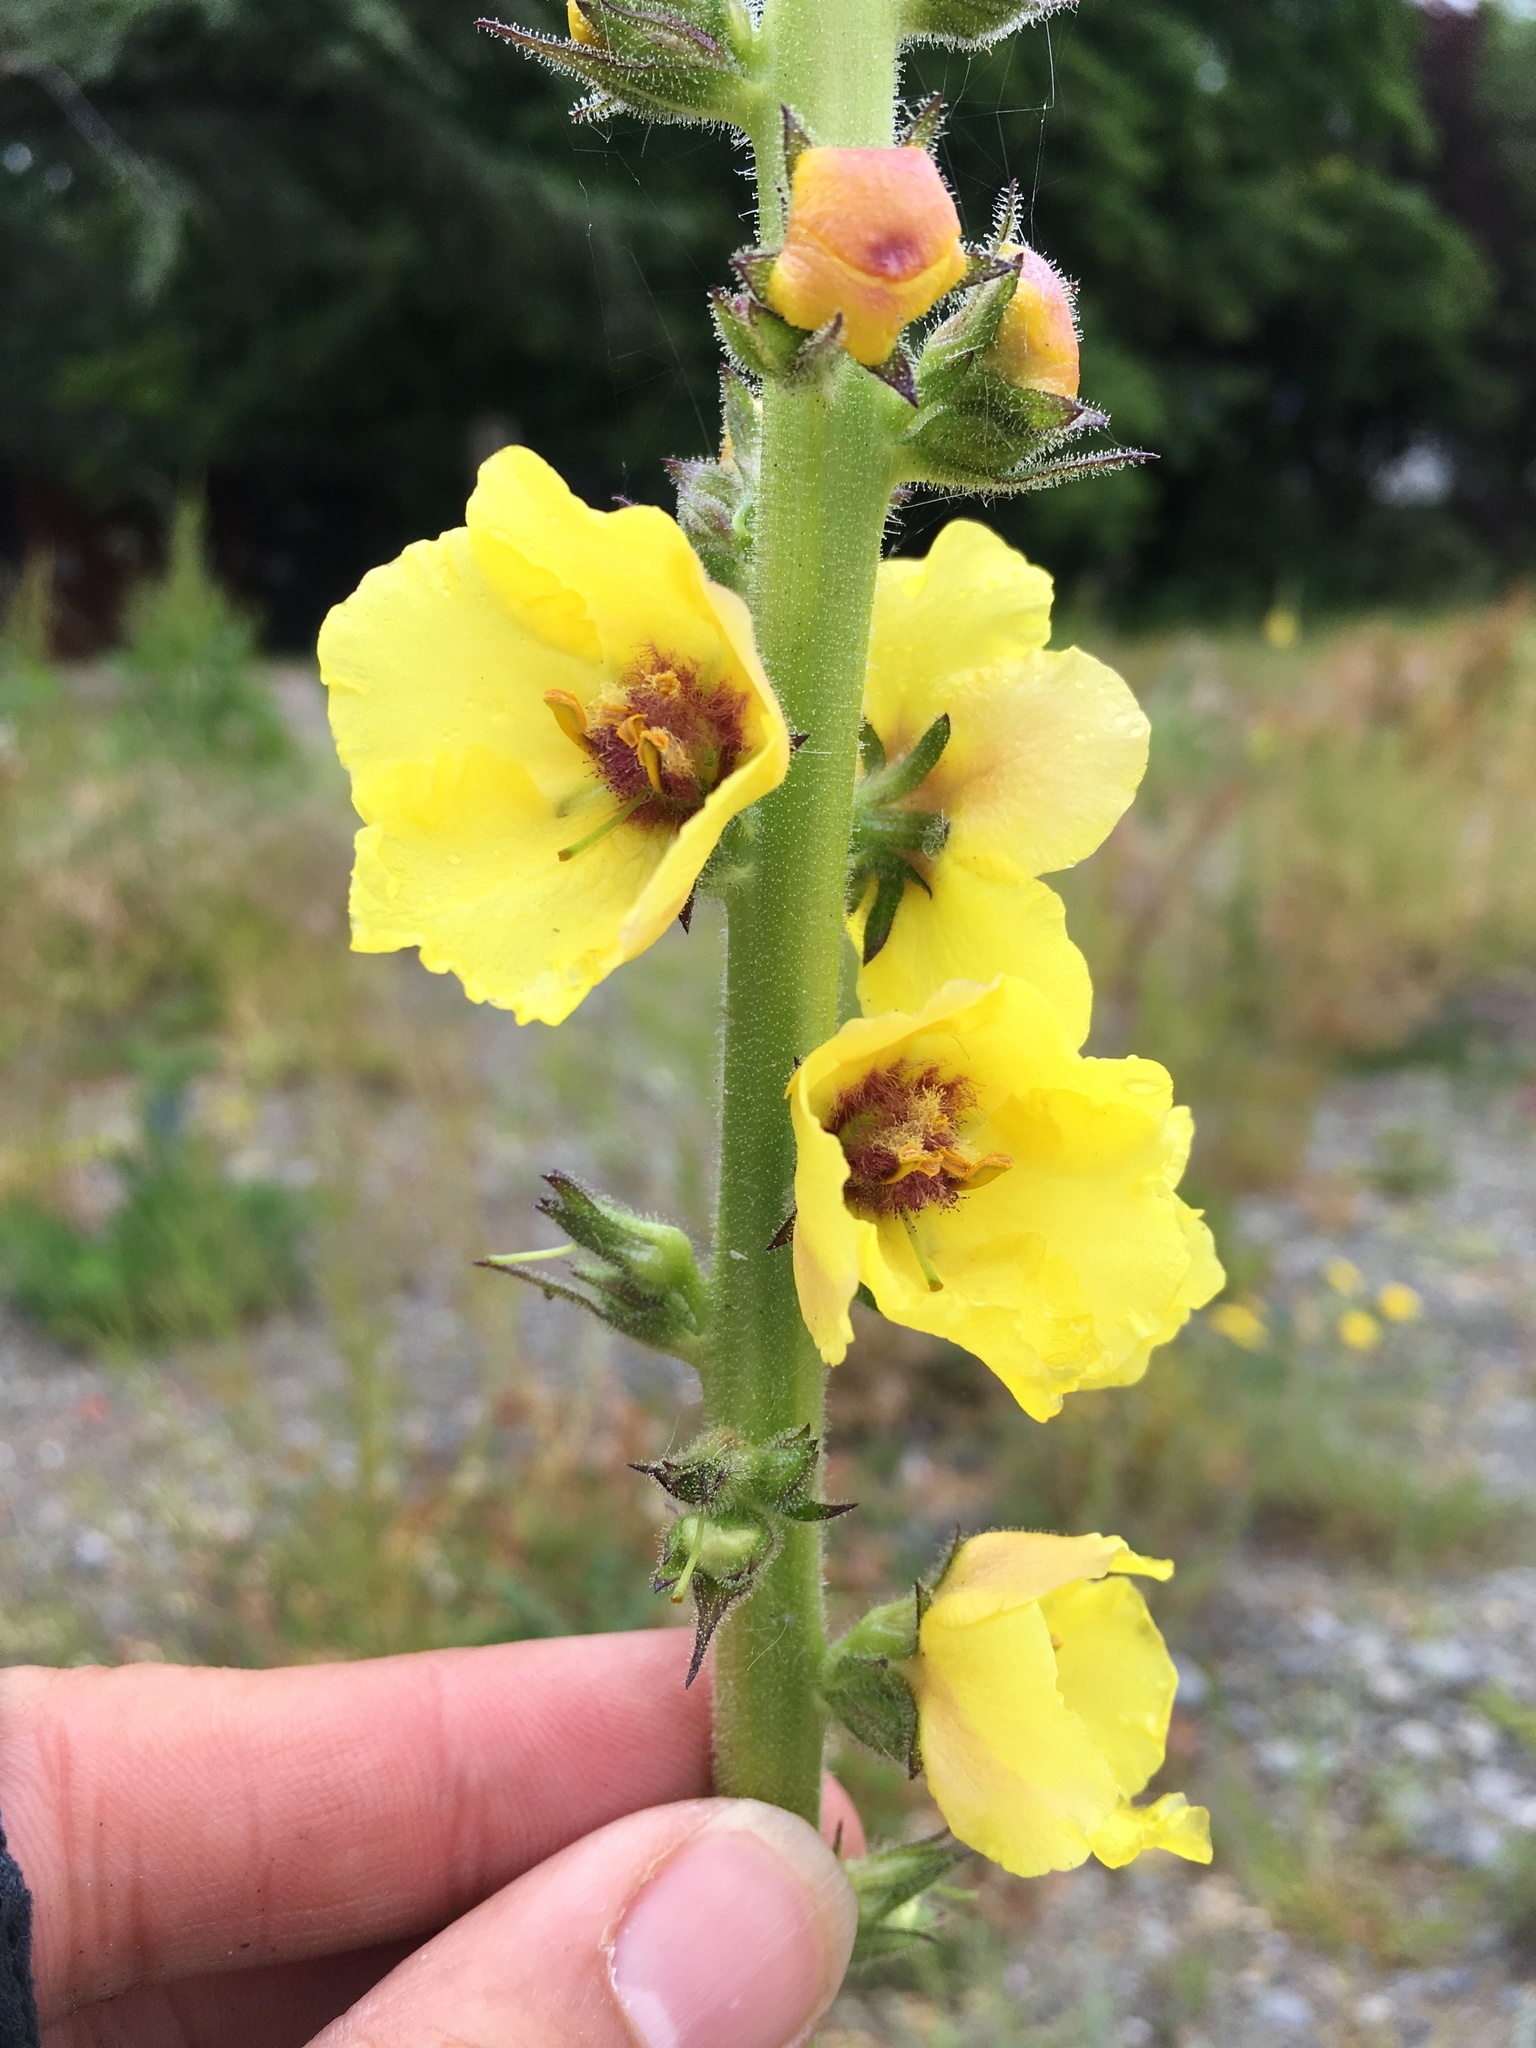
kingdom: Plantae
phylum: Tracheophyta
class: Magnoliopsida
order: Lamiales
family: Scrophulariaceae
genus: Verbascum
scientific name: Verbascum virgatum
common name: Twiggy mullein
